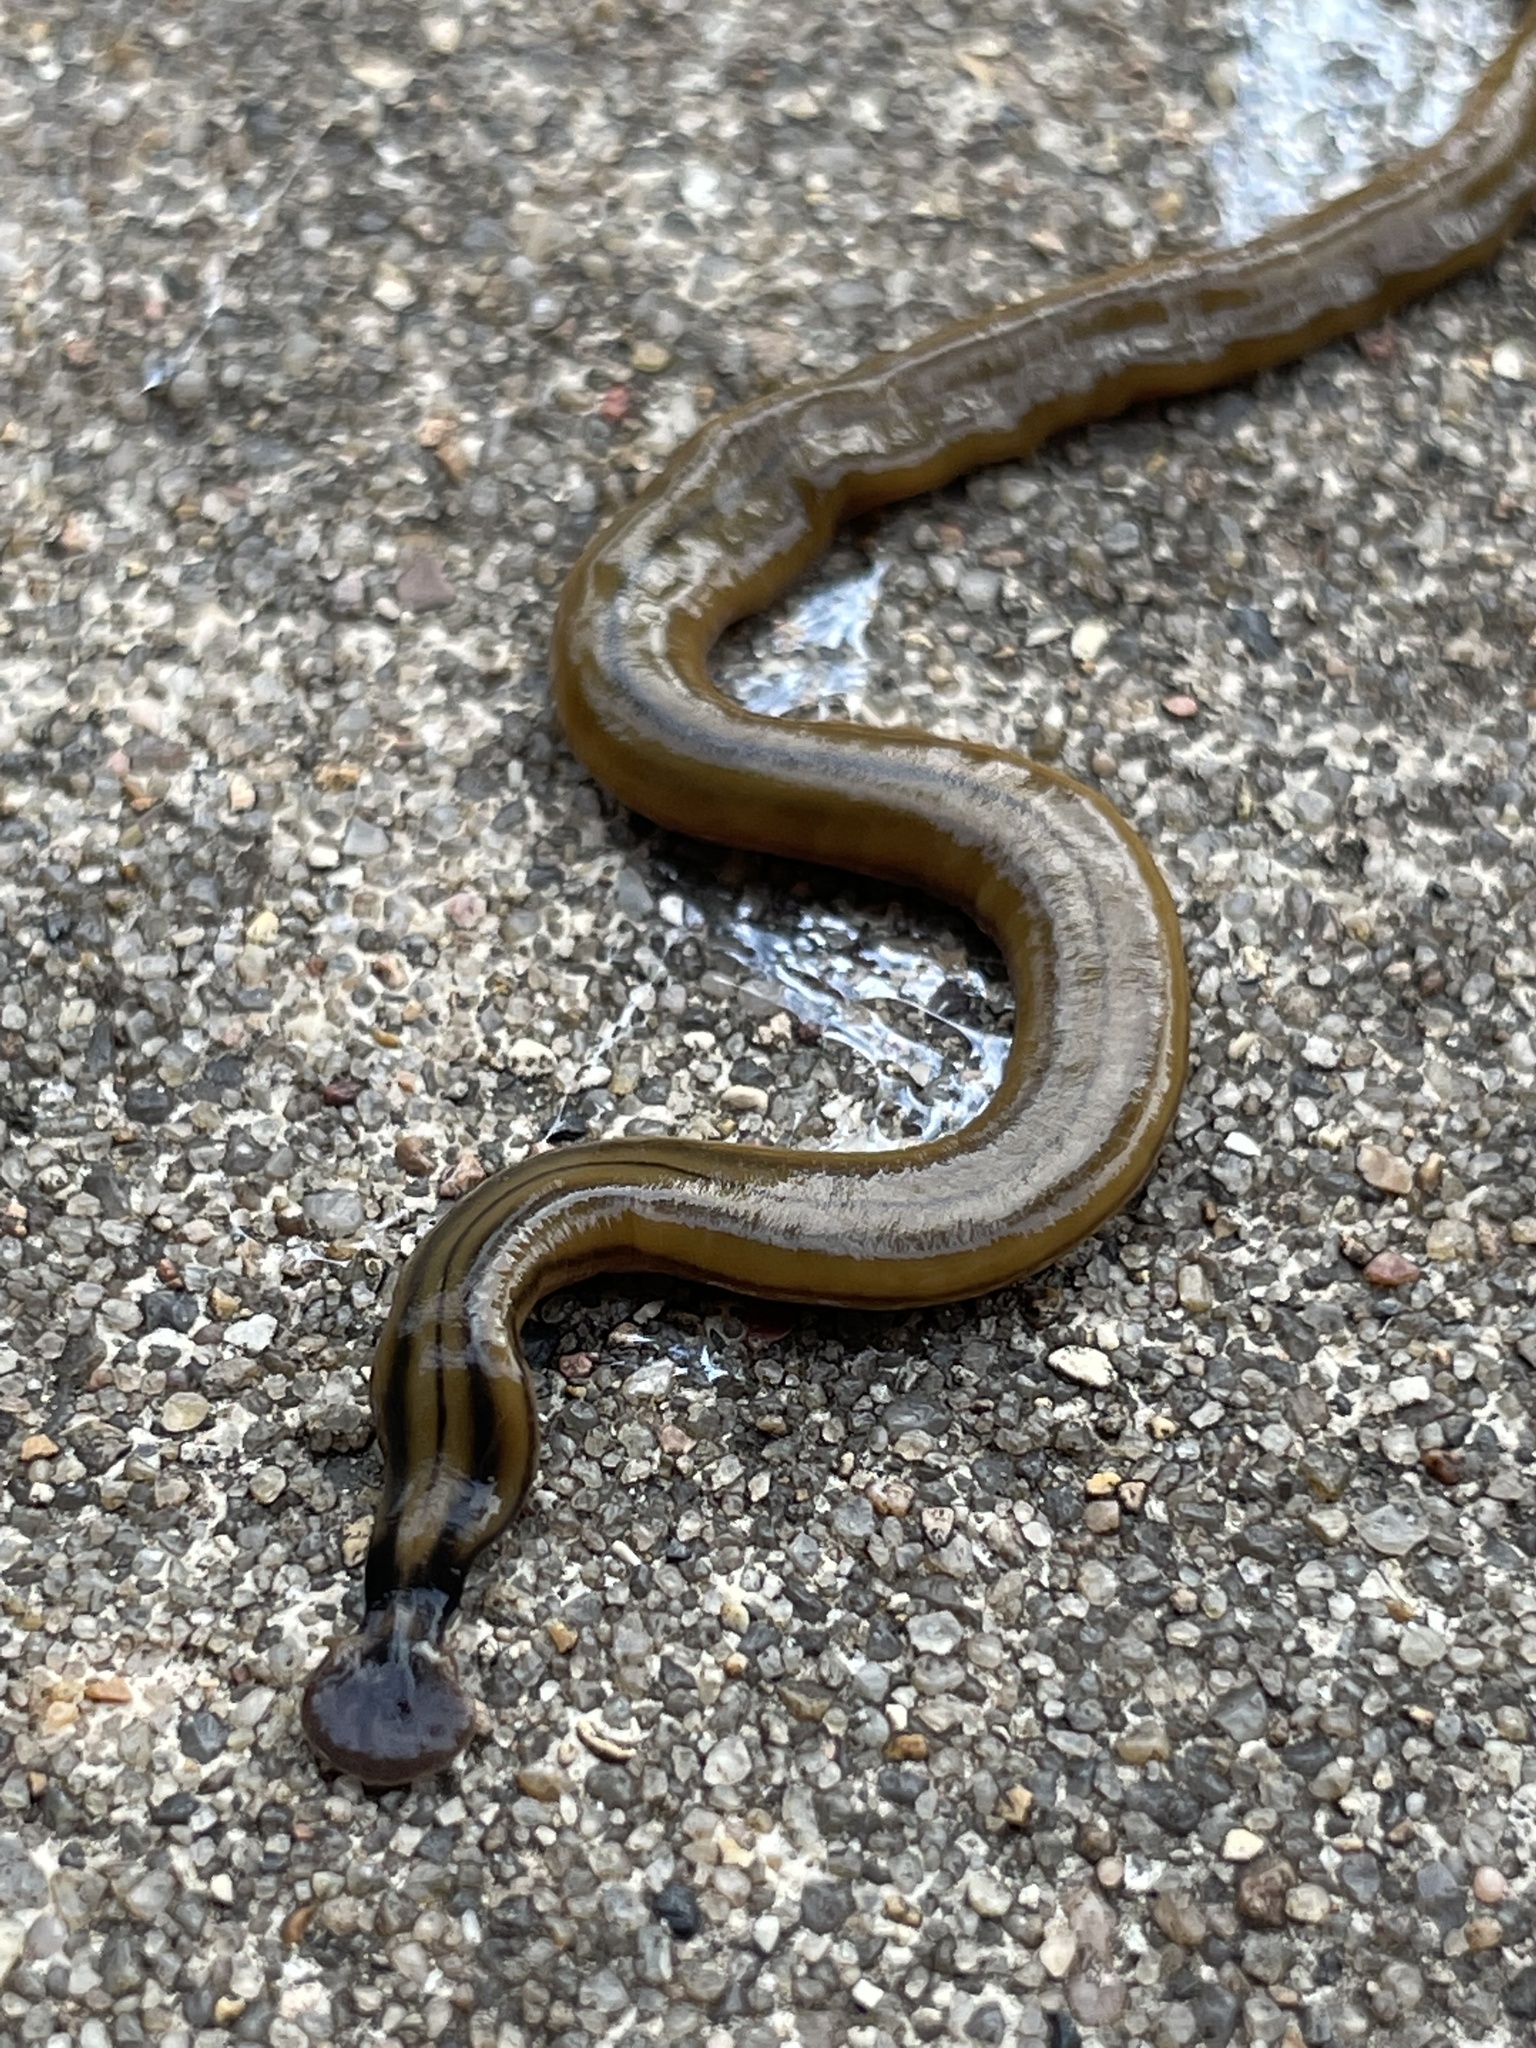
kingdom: Animalia
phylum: Platyhelminthes
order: Tricladida
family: Geoplanidae
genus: Bipalium
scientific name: Bipalium kewense
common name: Hammerhead flatworm
